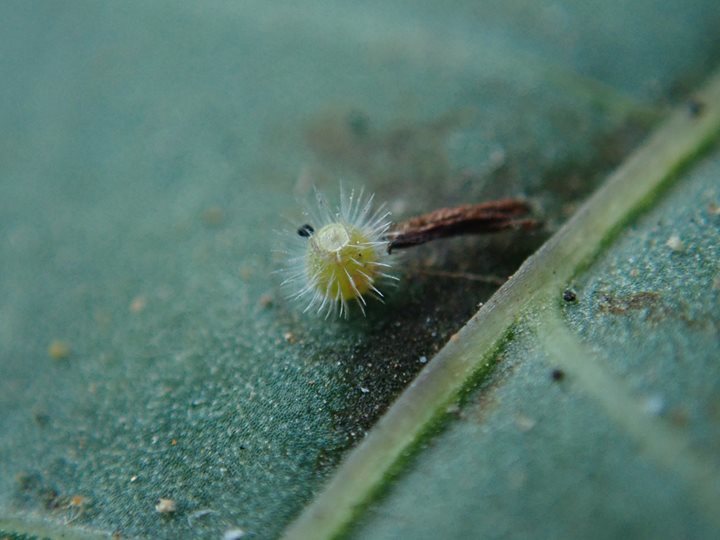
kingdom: Animalia
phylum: Arthropoda
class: Insecta
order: Lepidoptera
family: Nymphalidae
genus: Ariadne
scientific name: Ariadne ariadne
